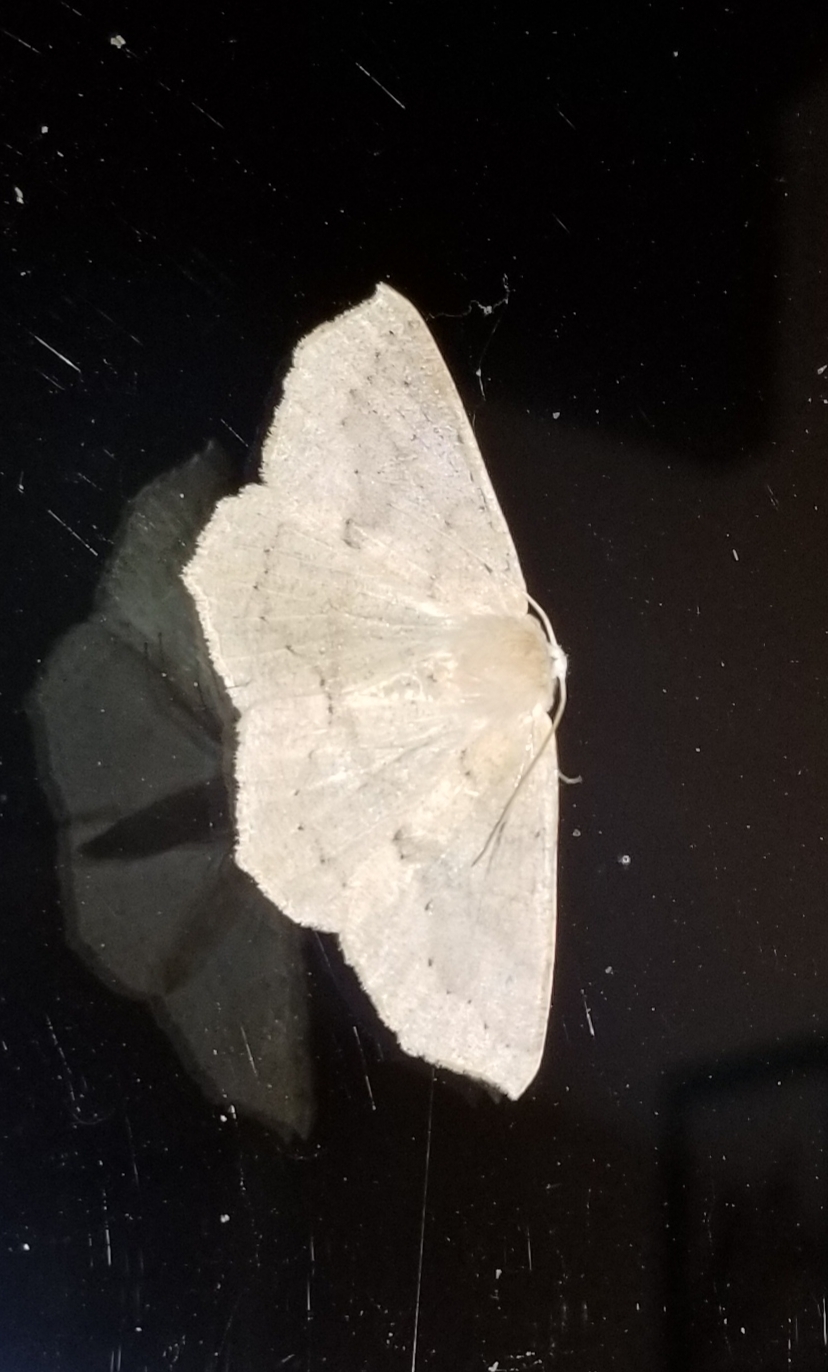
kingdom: Animalia
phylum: Arthropoda
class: Insecta
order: Lepidoptera
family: Geometridae
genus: Sabulodes
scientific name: Sabulodes aegrotata
